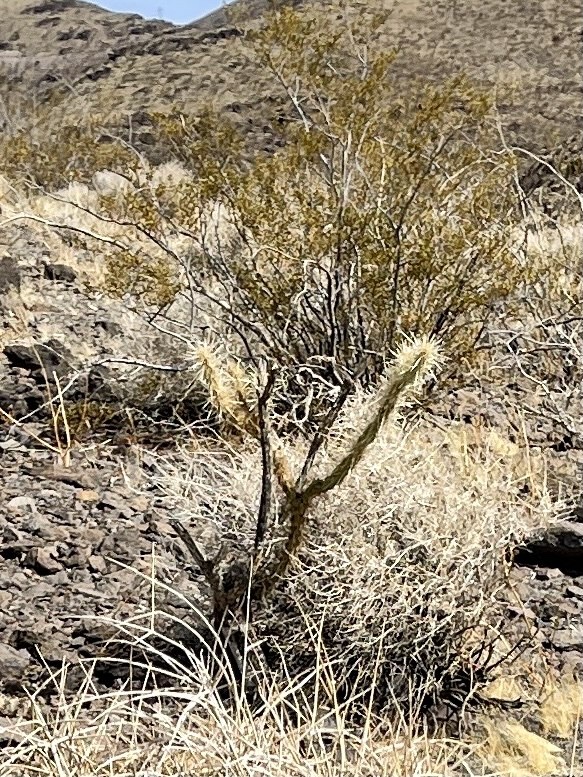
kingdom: Plantae
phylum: Tracheophyta
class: Magnoliopsida
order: Caryophyllales
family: Cactaceae
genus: Cylindropuntia
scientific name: Cylindropuntia acanthocarpa
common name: Buckhorn cholla
